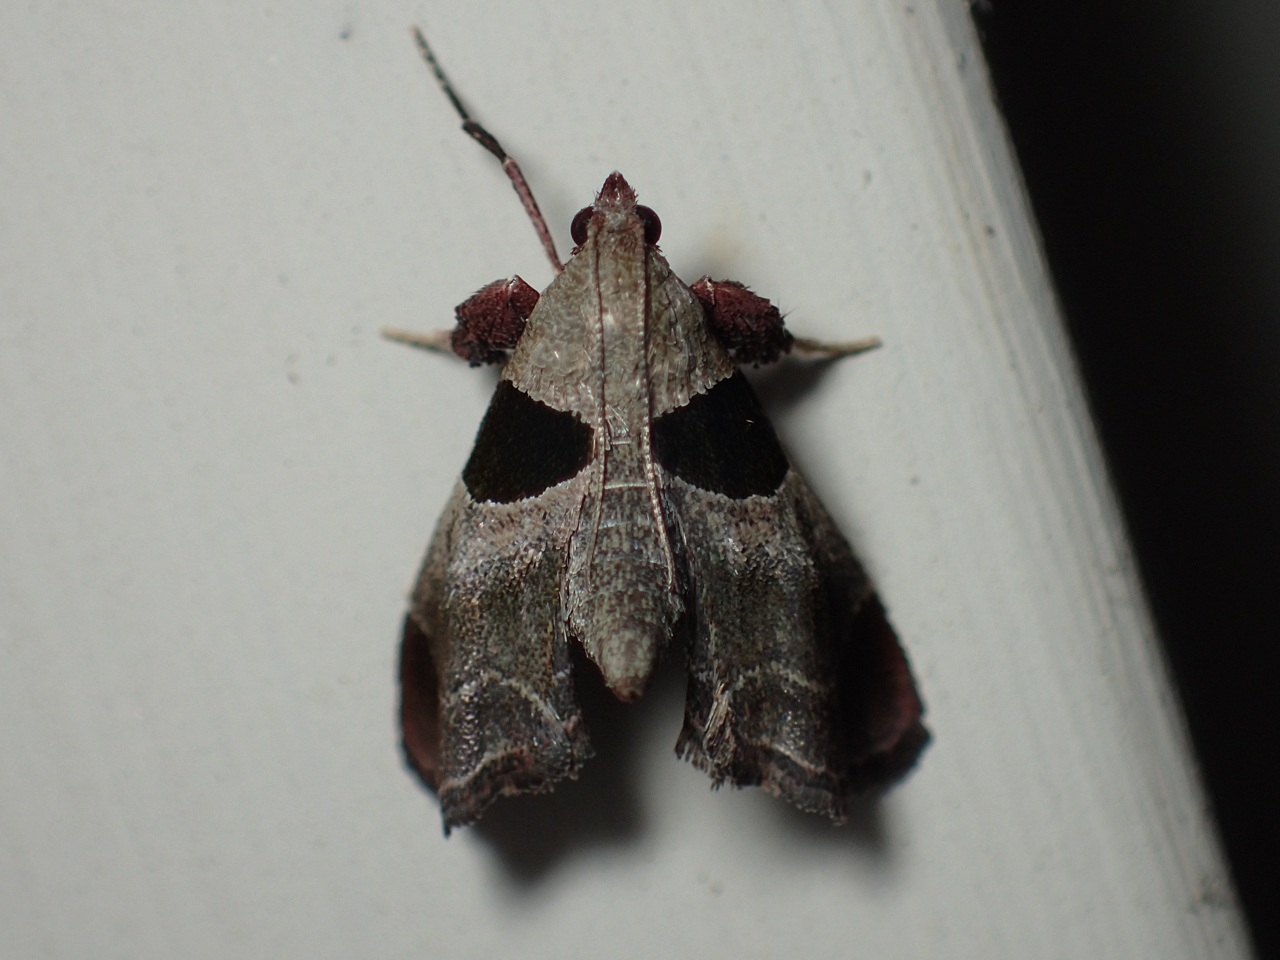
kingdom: Animalia
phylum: Arthropoda
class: Insecta
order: Lepidoptera
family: Pyralidae
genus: Tosale
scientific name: Tosale oviplagalis
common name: Dimorphic tosale moth
